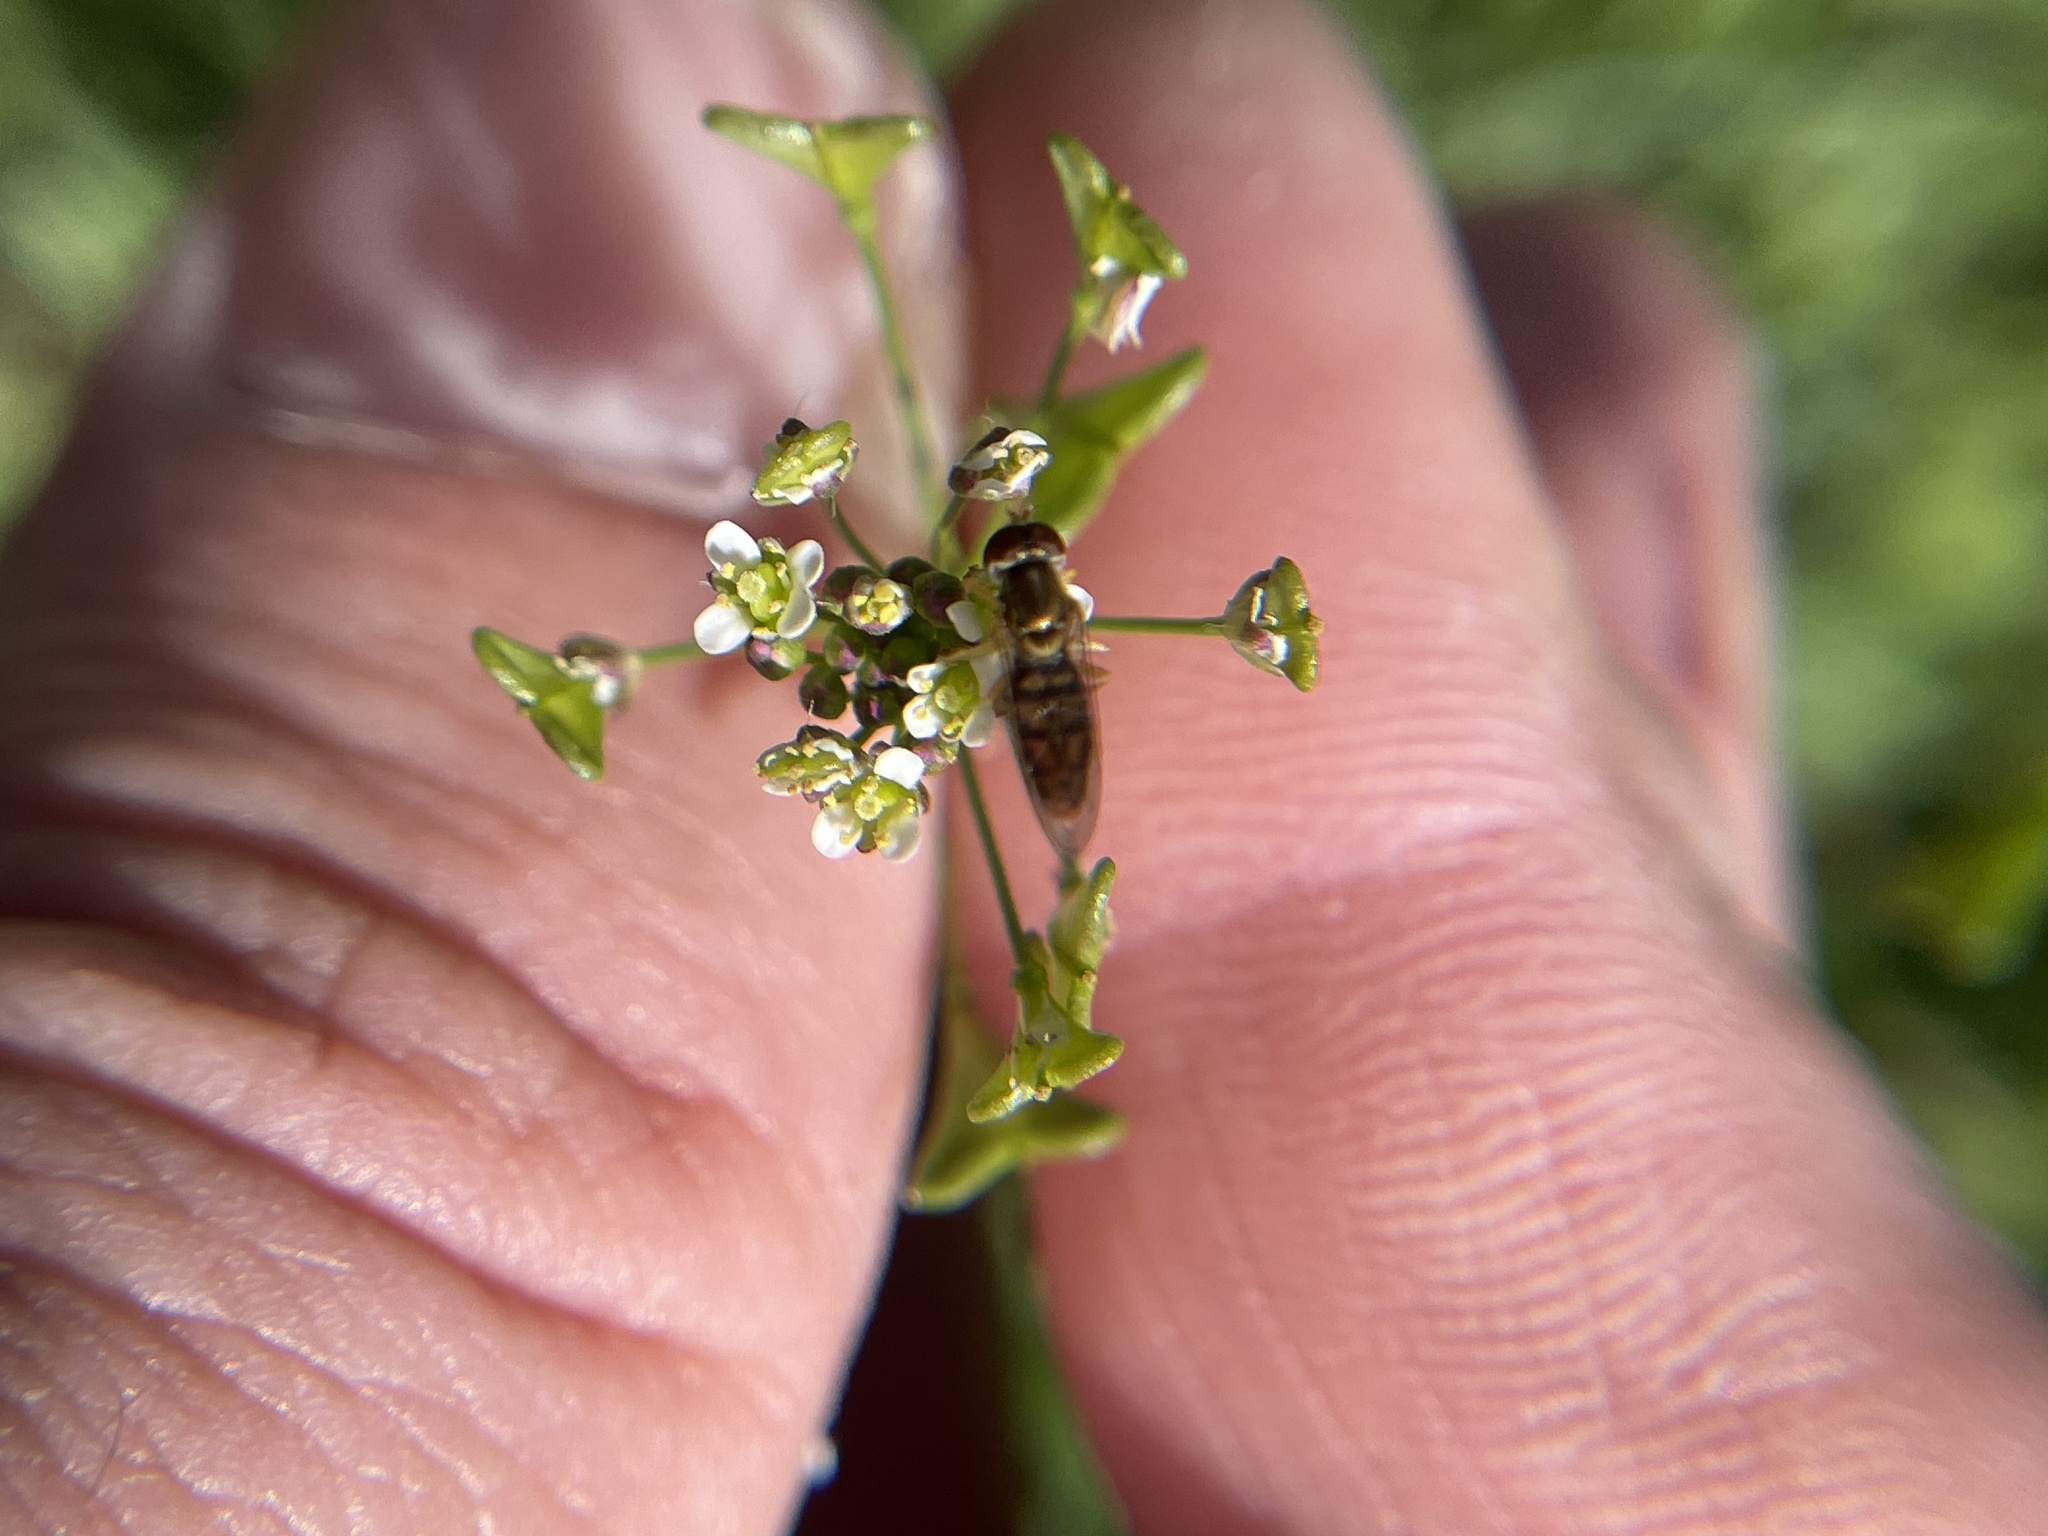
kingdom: Animalia
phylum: Arthropoda
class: Insecta
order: Diptera
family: Syrphidae
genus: Toxomerus
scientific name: Toxomerus marginatus
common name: Syrphid fly
